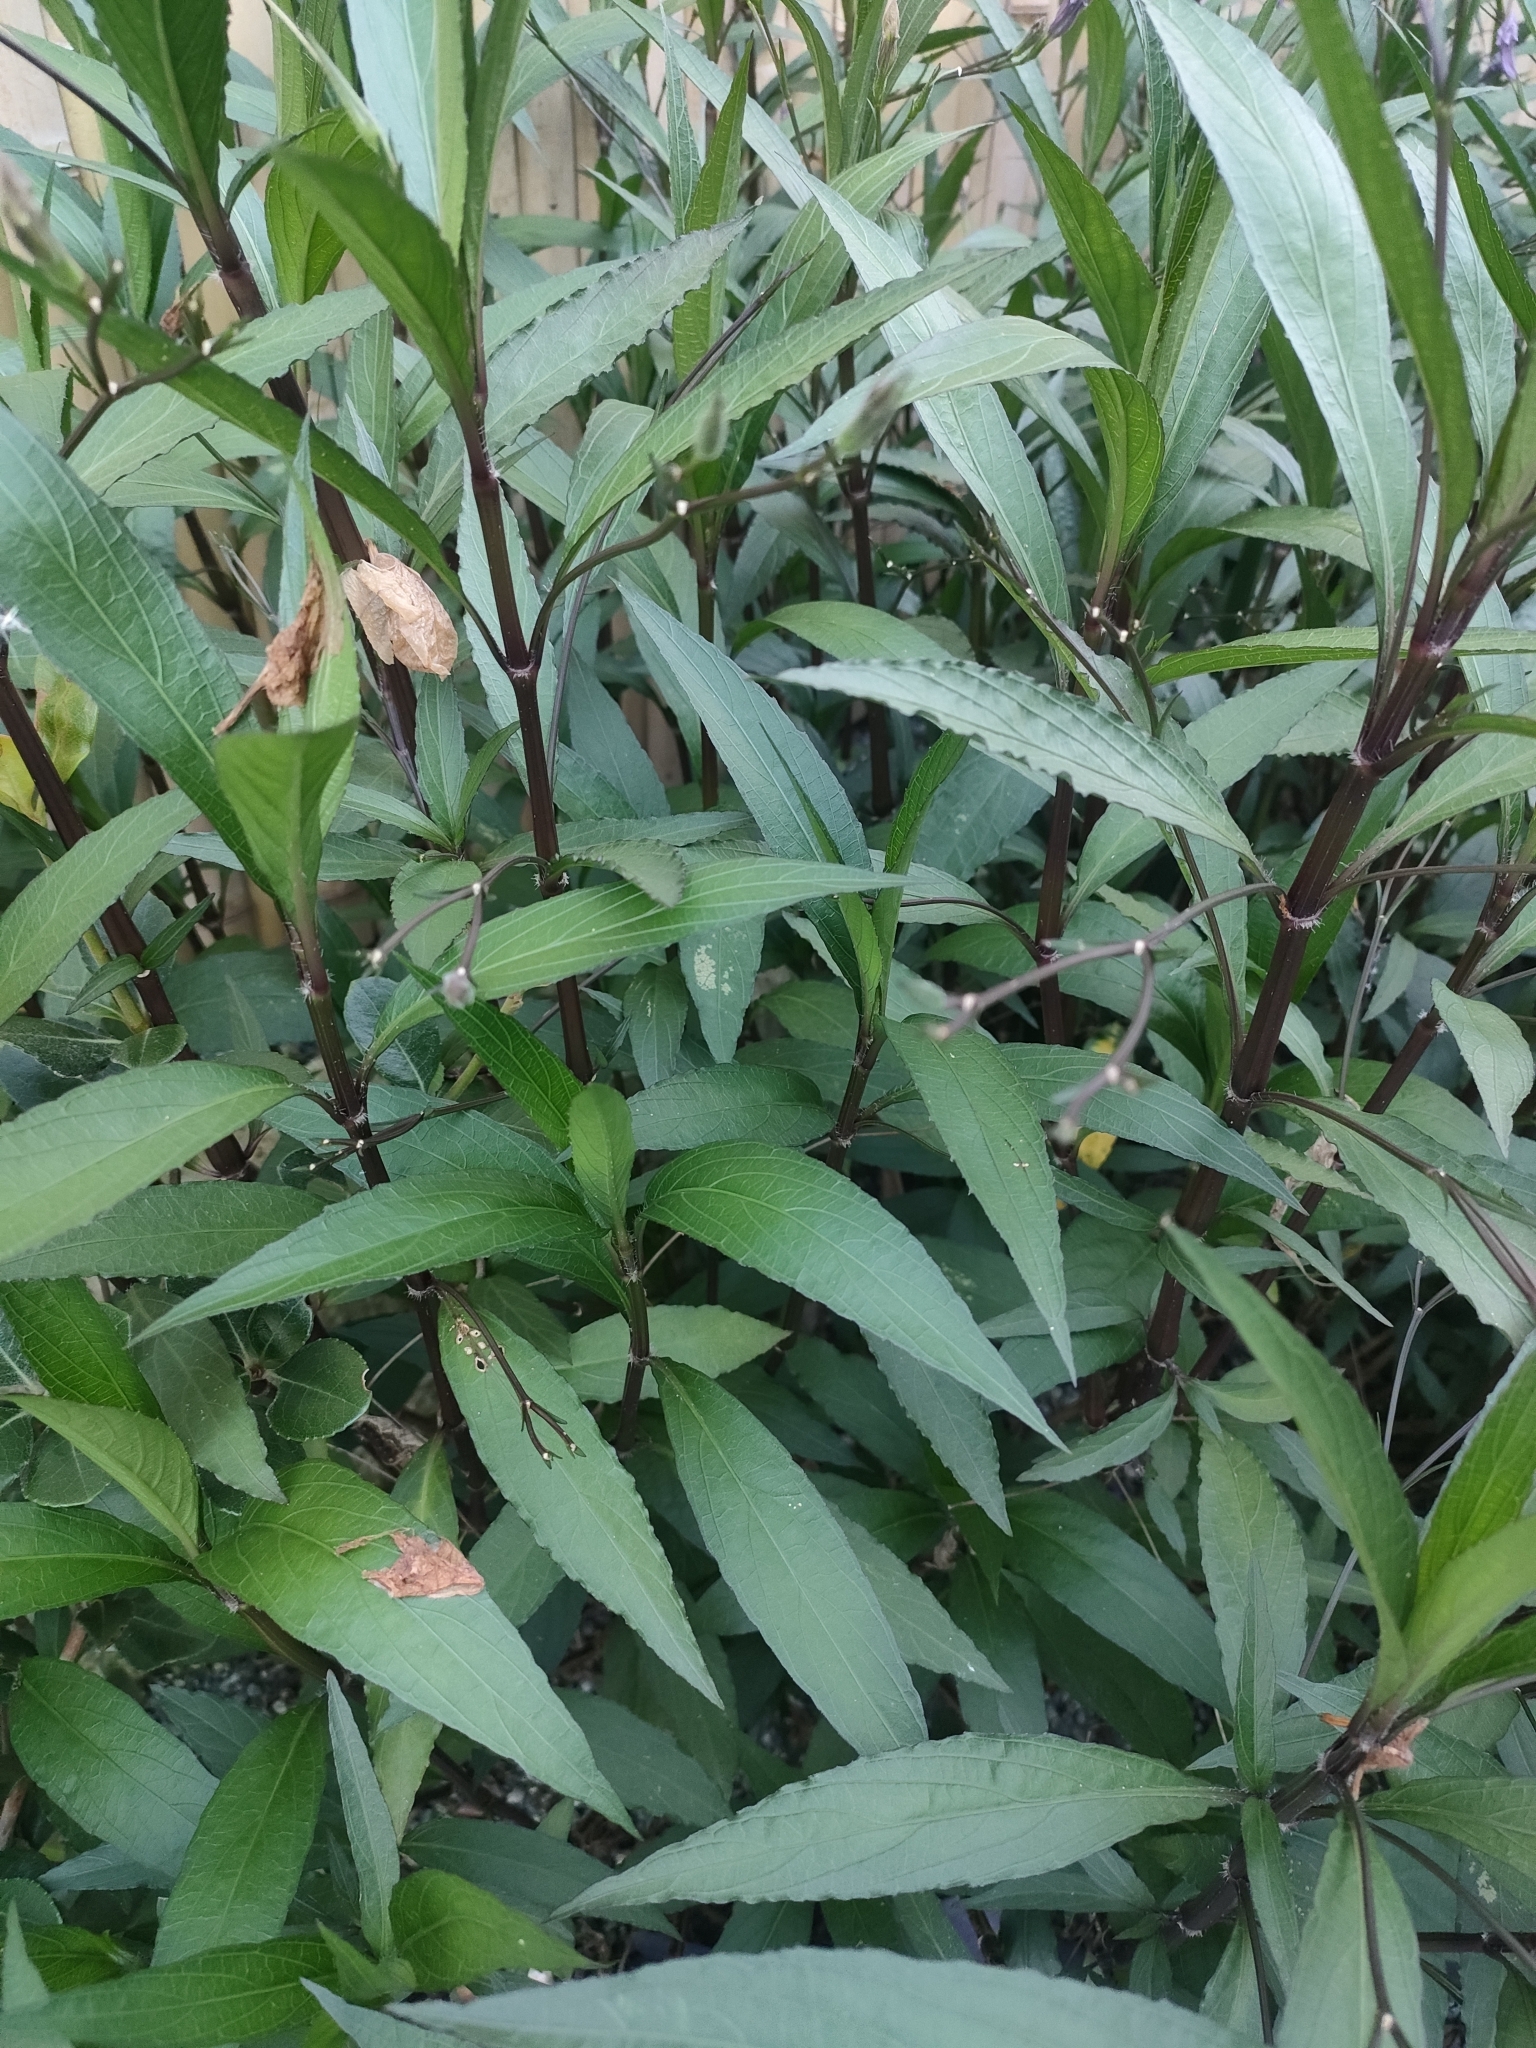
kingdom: Plantae
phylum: Tracheophyta
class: Magnoliopsida
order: Lamiales
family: Acanthaceae
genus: Ruellia
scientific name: Ruellia simplex
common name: Softseed wild petunia
